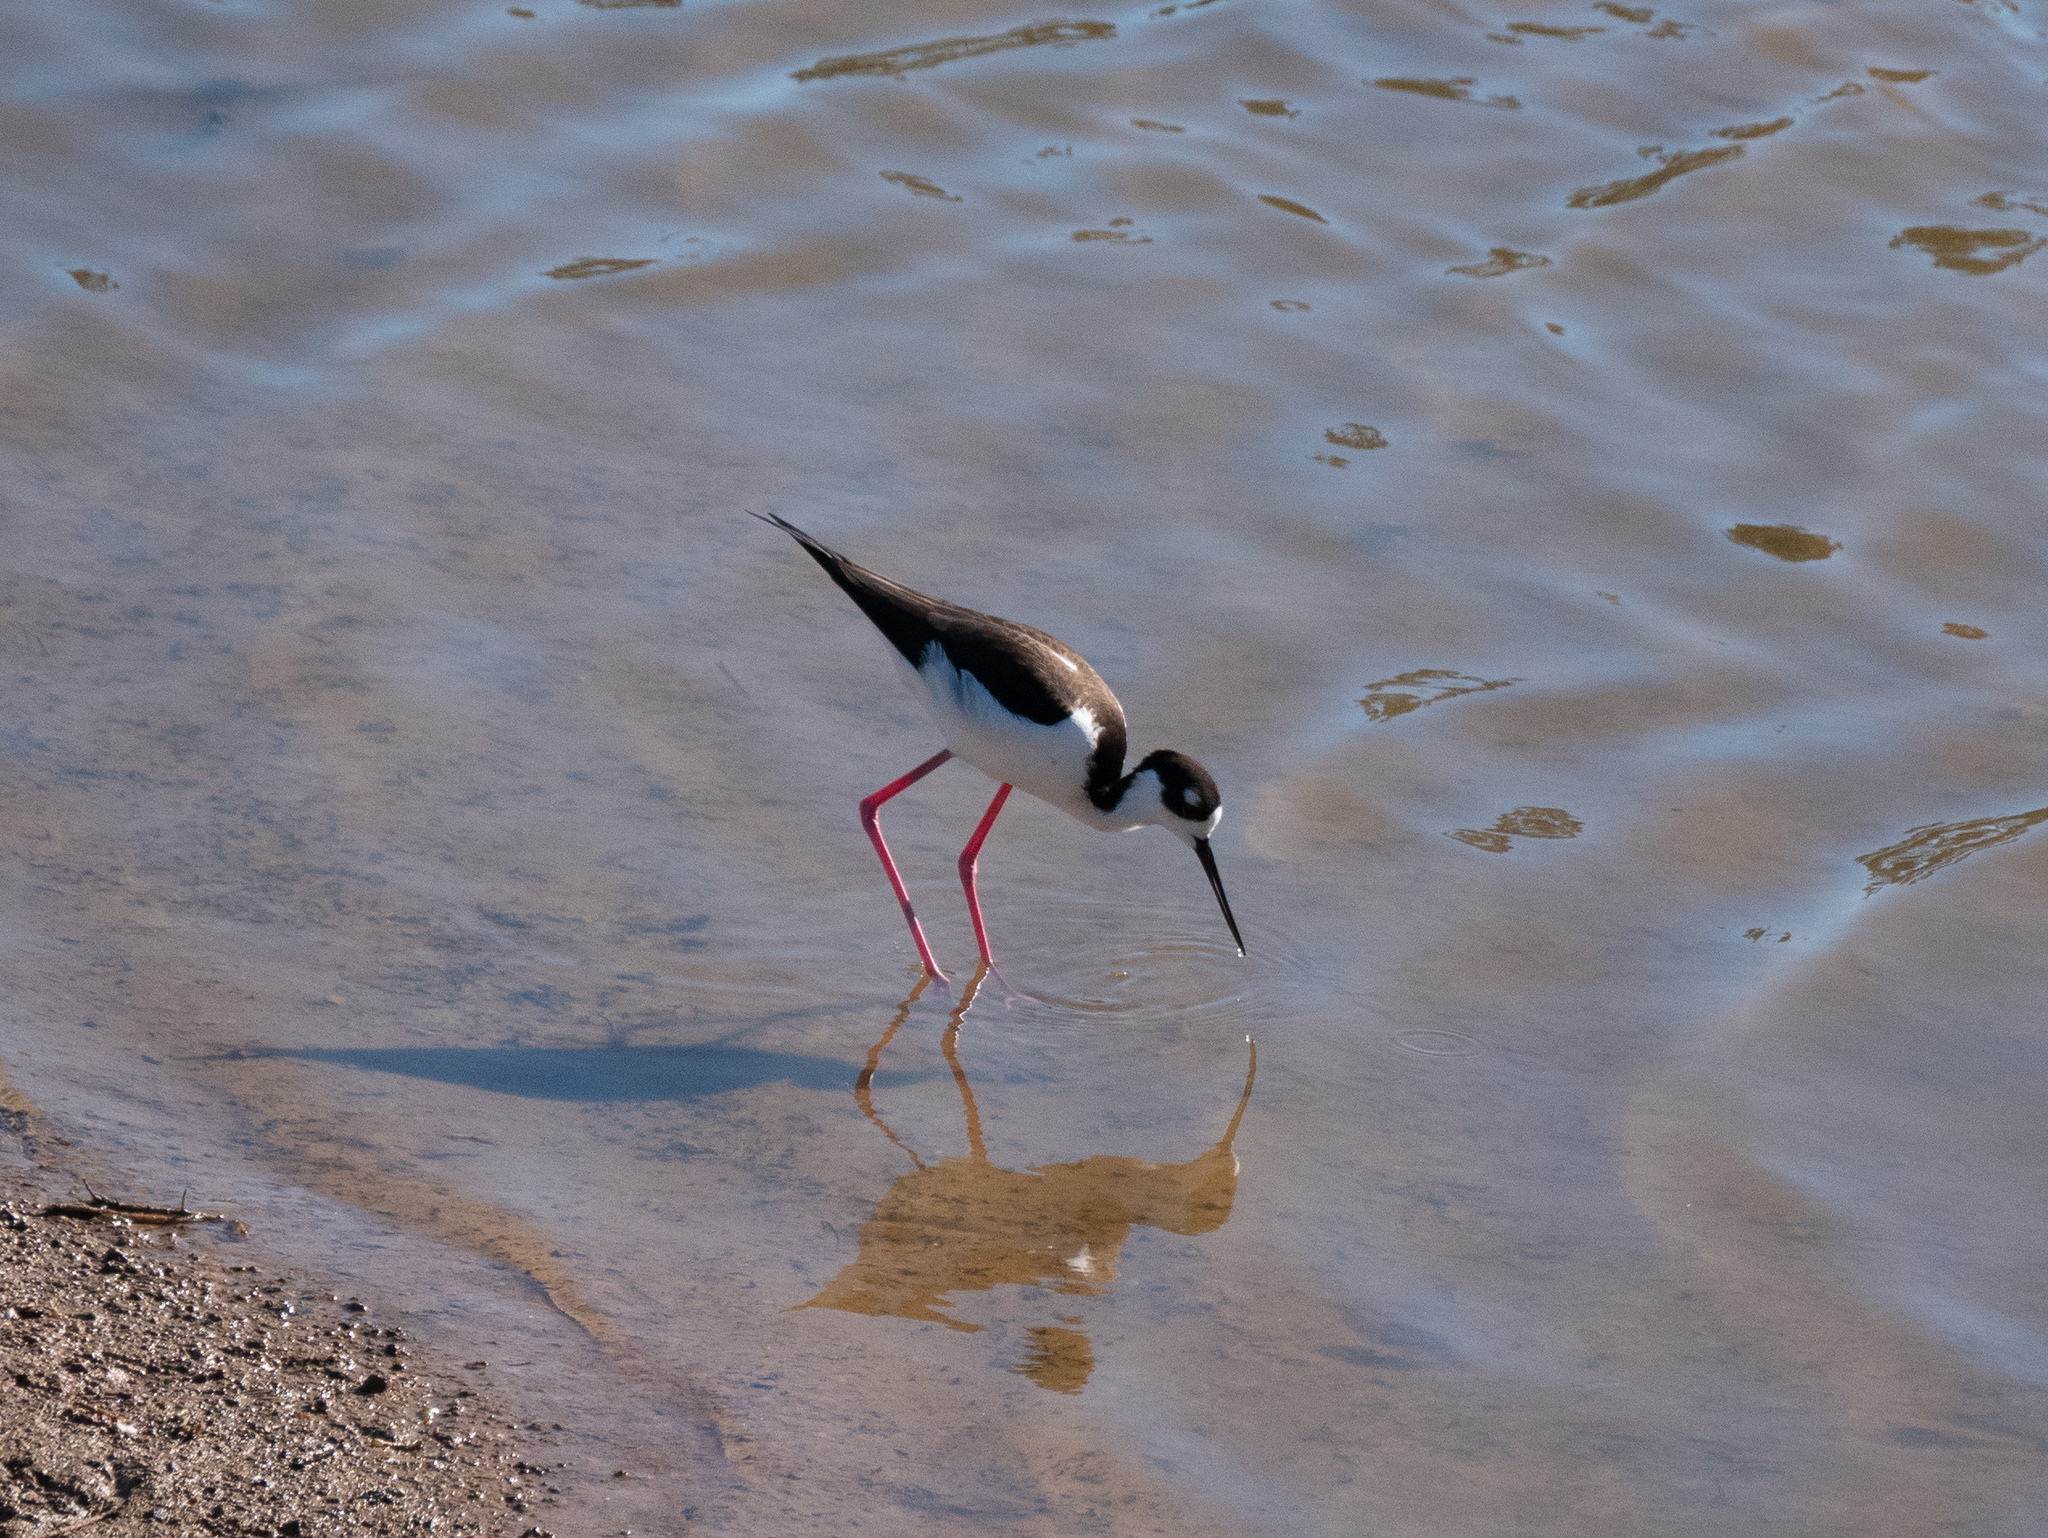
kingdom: Animalia
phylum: Chordata
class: Aves
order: Charadriiformes
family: Recurvirostridae
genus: Himantopus
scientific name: Himantopus mexicanus
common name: Black-necked stilt
